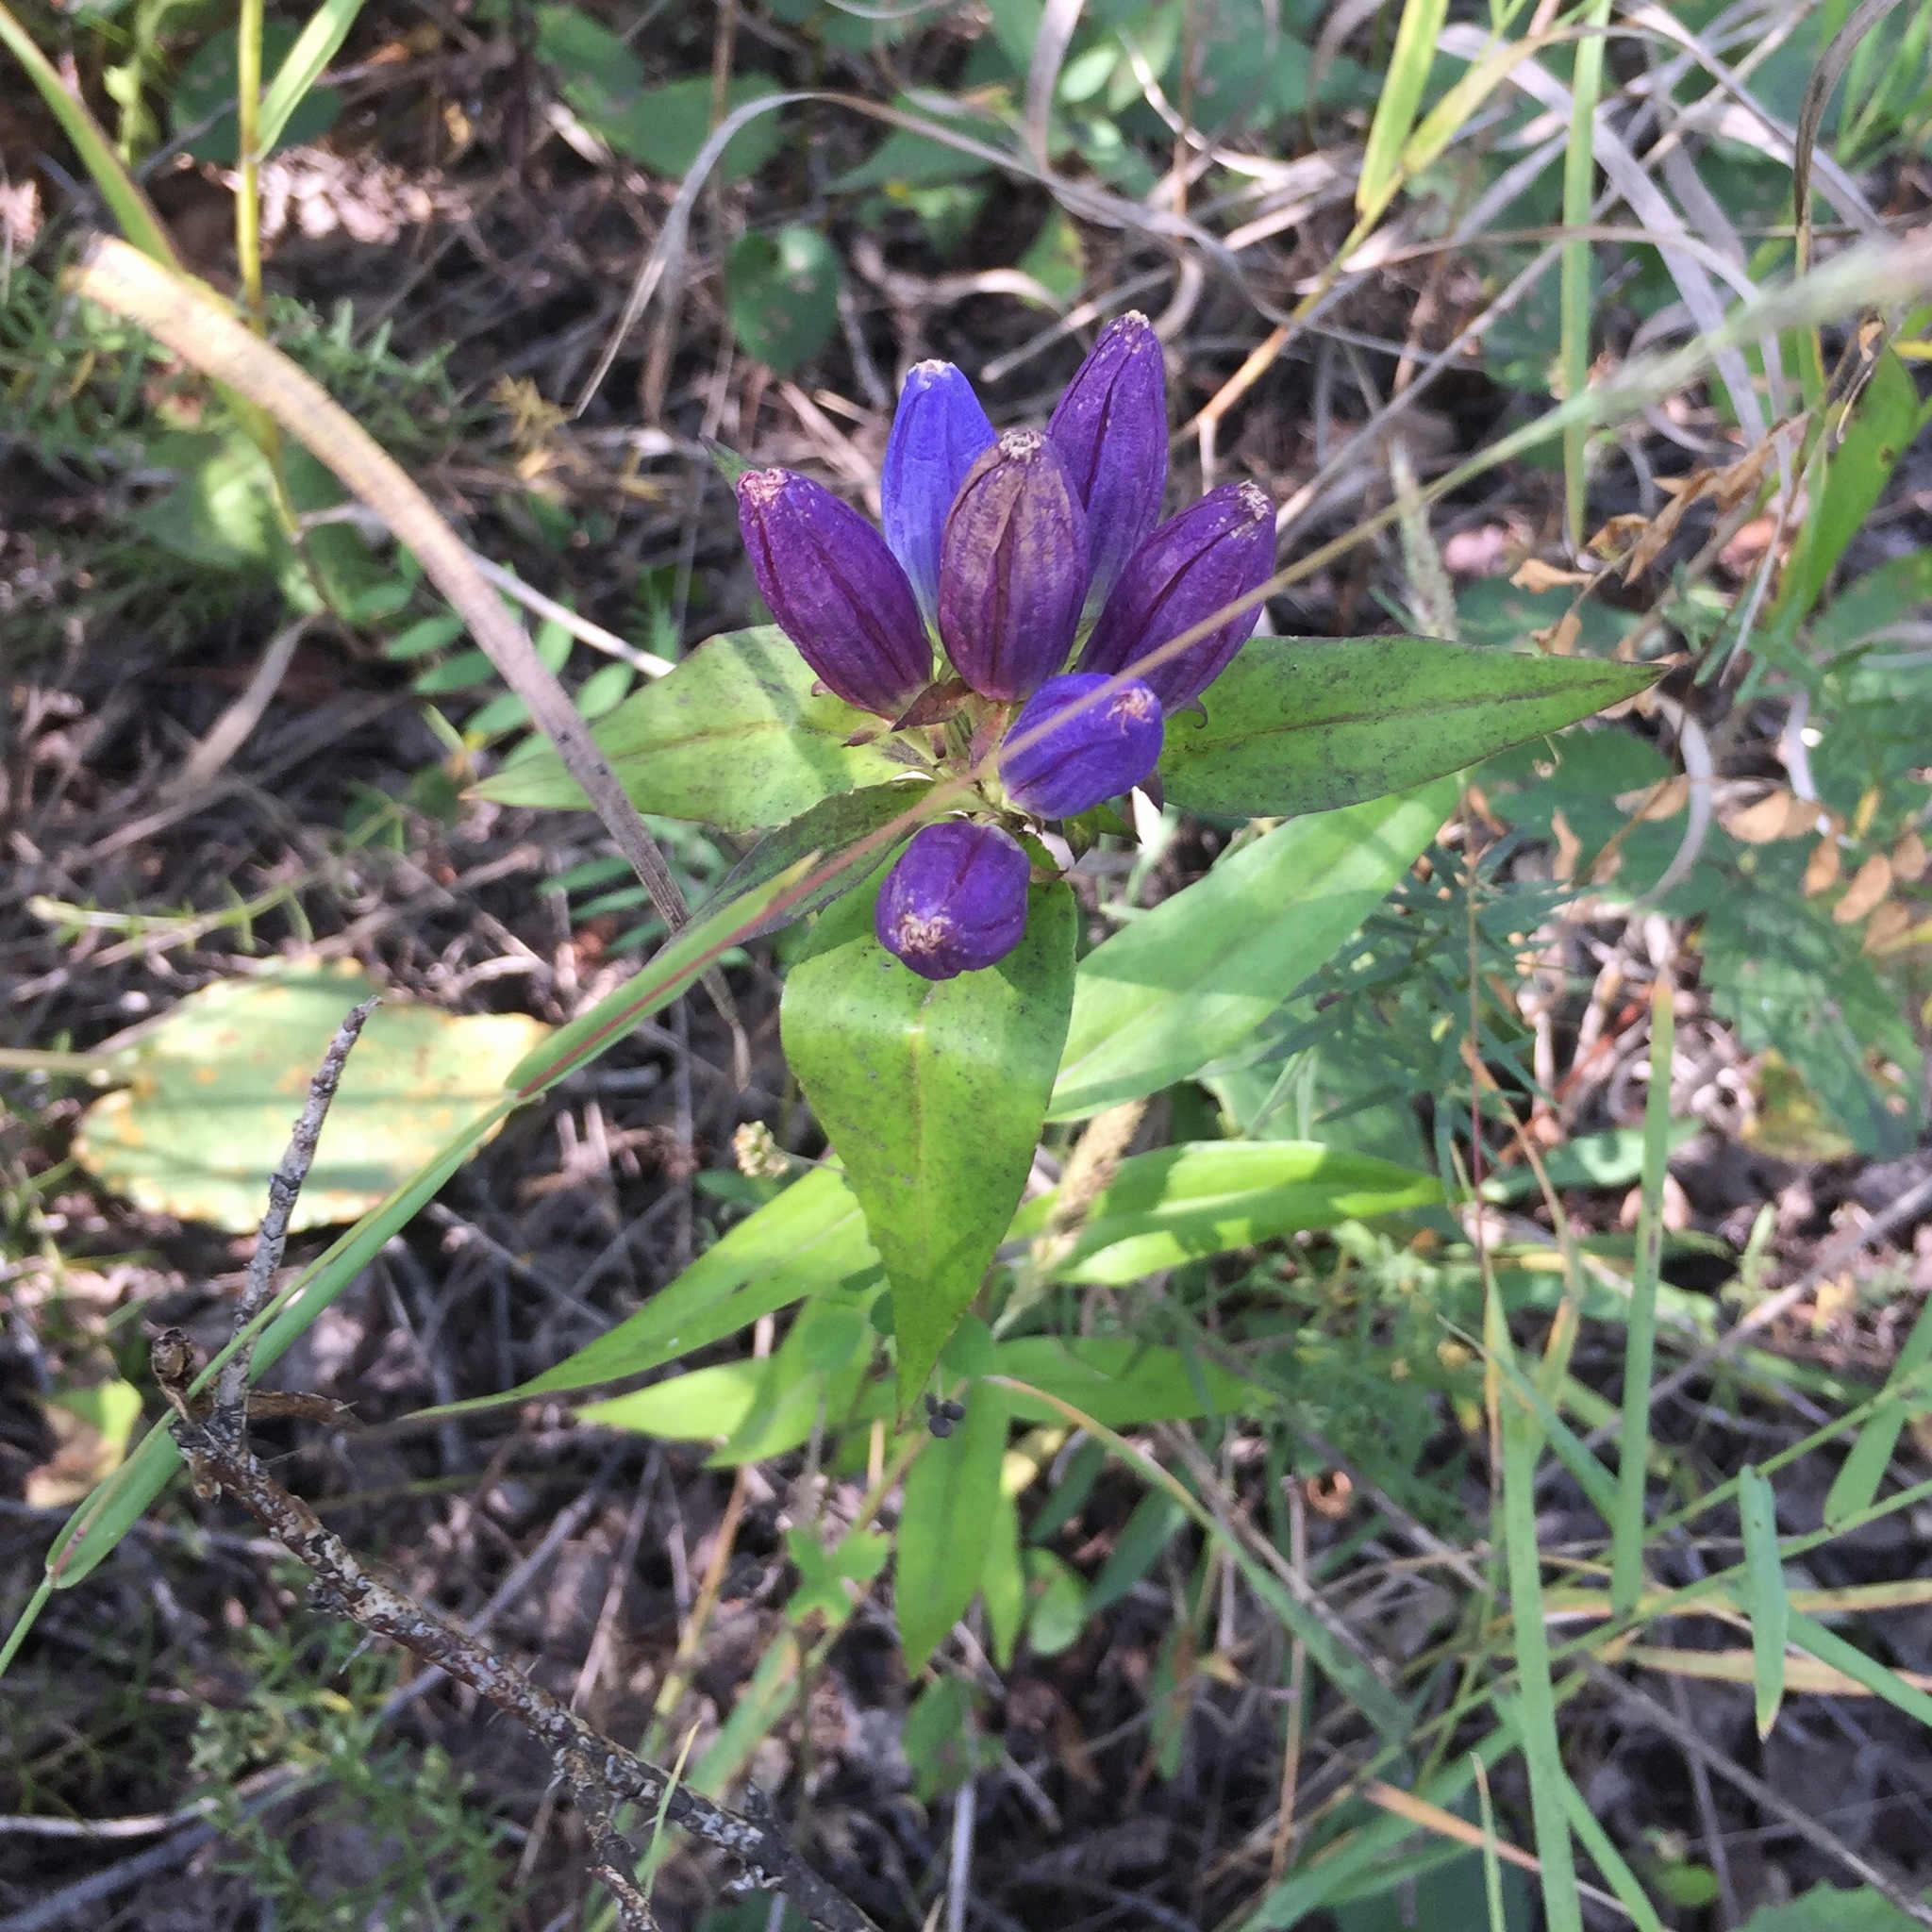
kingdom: Plantae
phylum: Tracheophyta
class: Magnoliopsida
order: Gentianales
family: Gentianaceae
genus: Gentiana
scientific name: Gentiana andrewsii
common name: Bottle gentian
